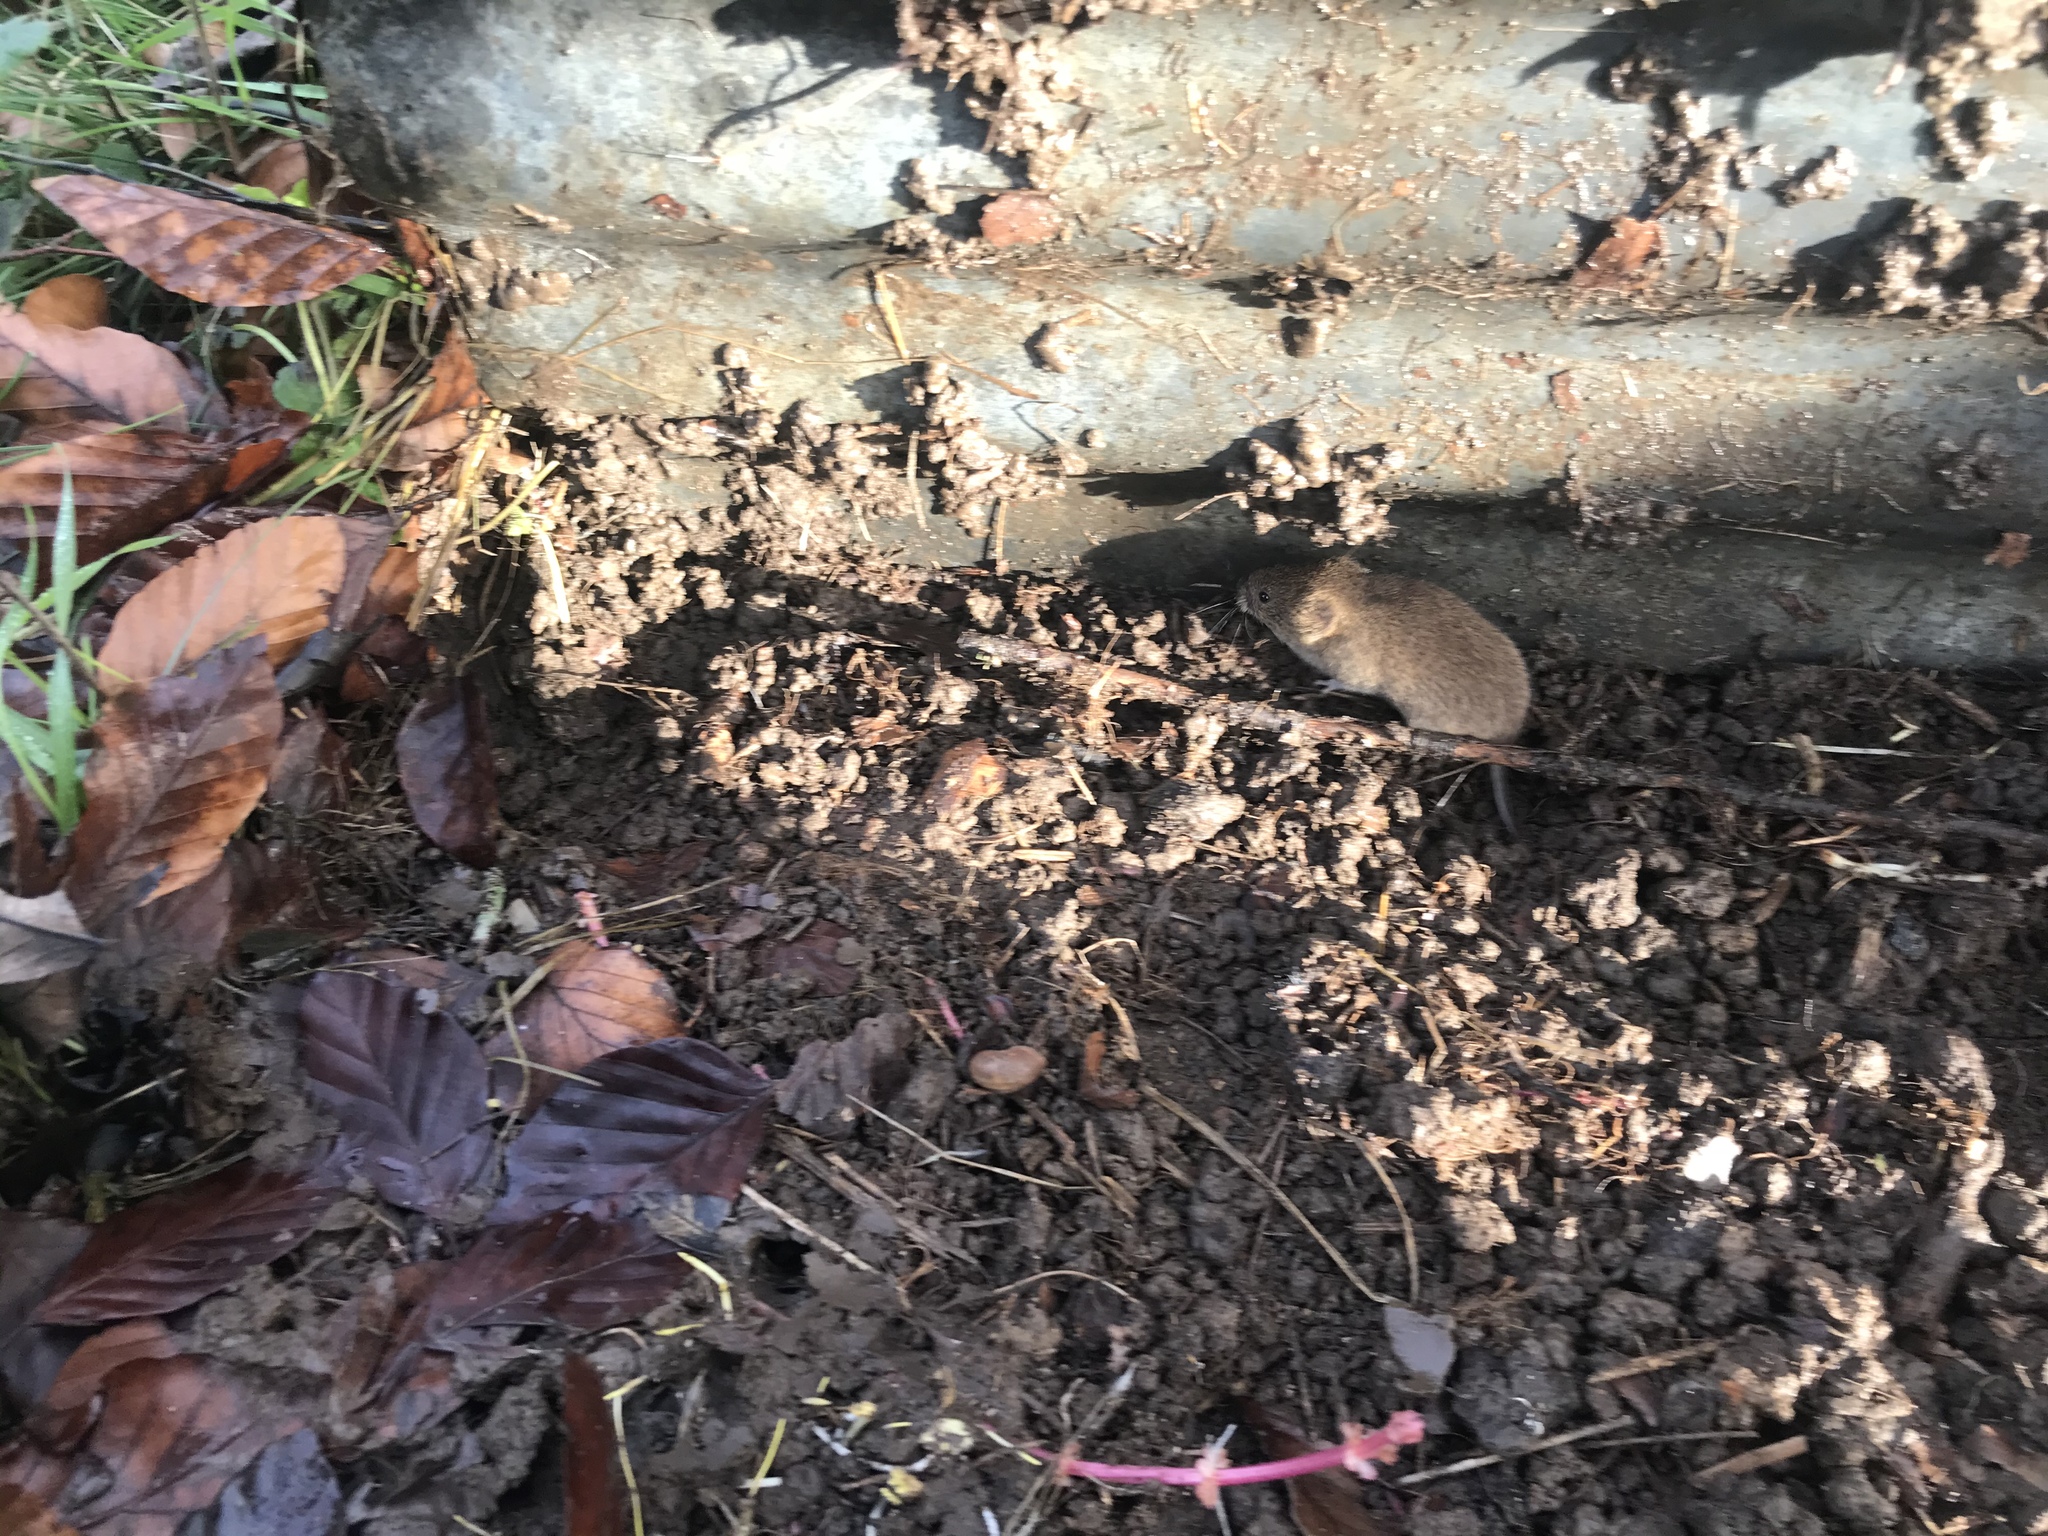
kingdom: Animalia
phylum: Chordata
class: Mammalia
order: Rodentia
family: Cricetidae
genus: Microtus
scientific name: Microtus agrestis
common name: Field vole
